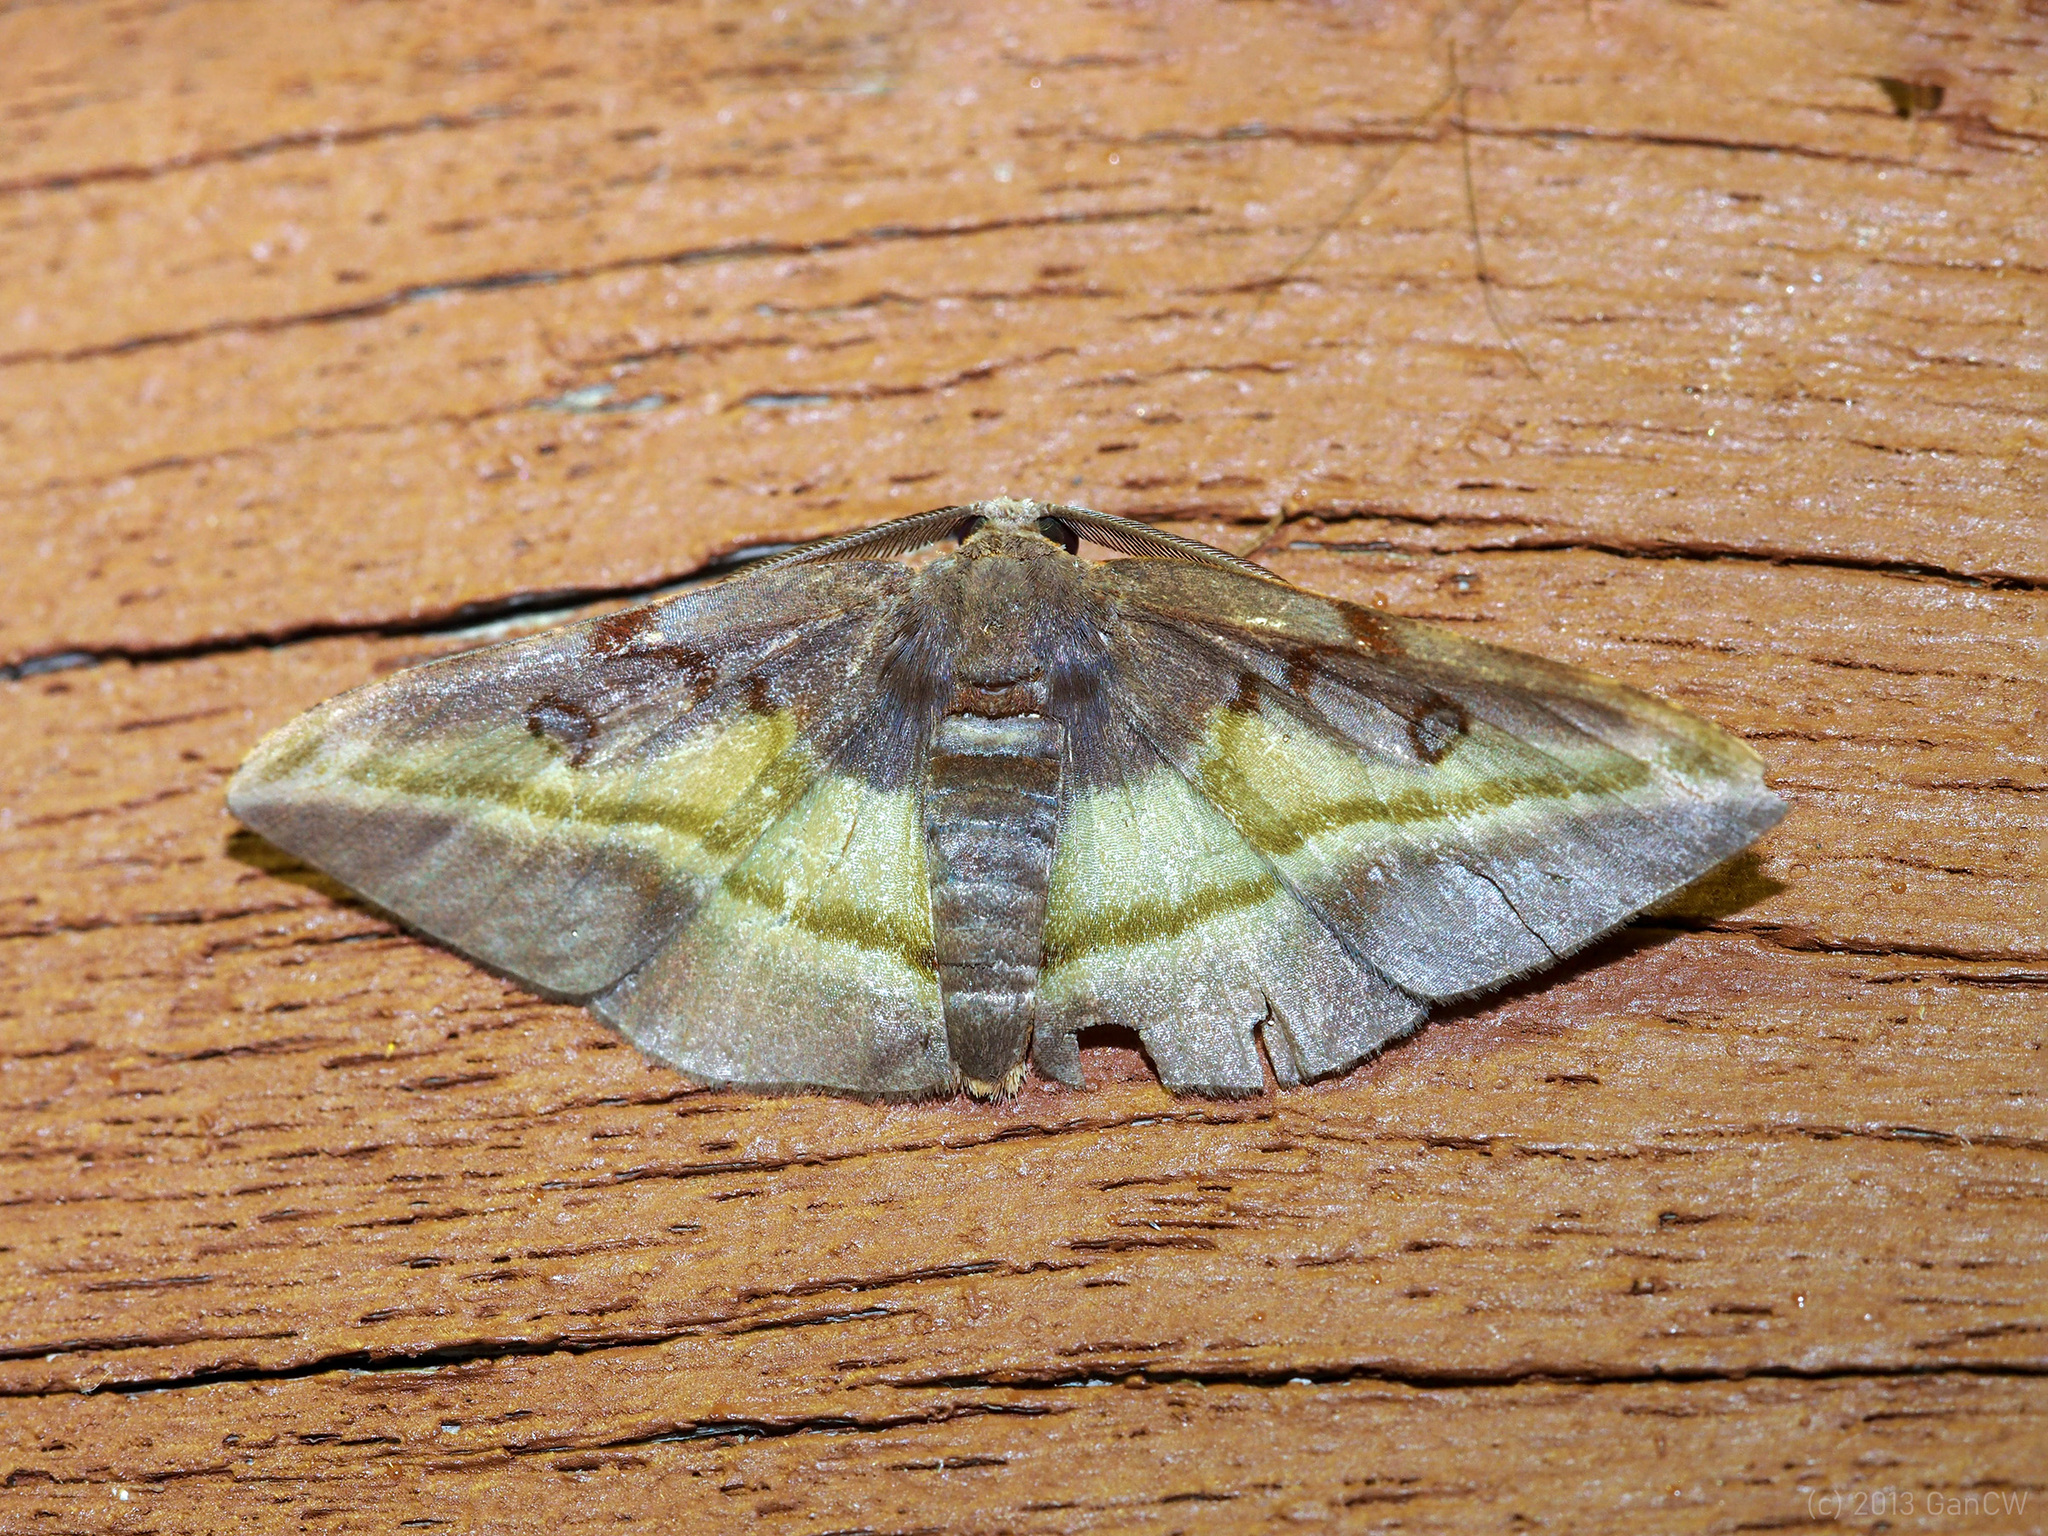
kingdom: Animalia
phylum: Arthropoda
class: Insecta
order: Lepidoptera
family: Geometridae
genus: Hypochrosis
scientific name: Hypochrosis cryptopyrrhata
